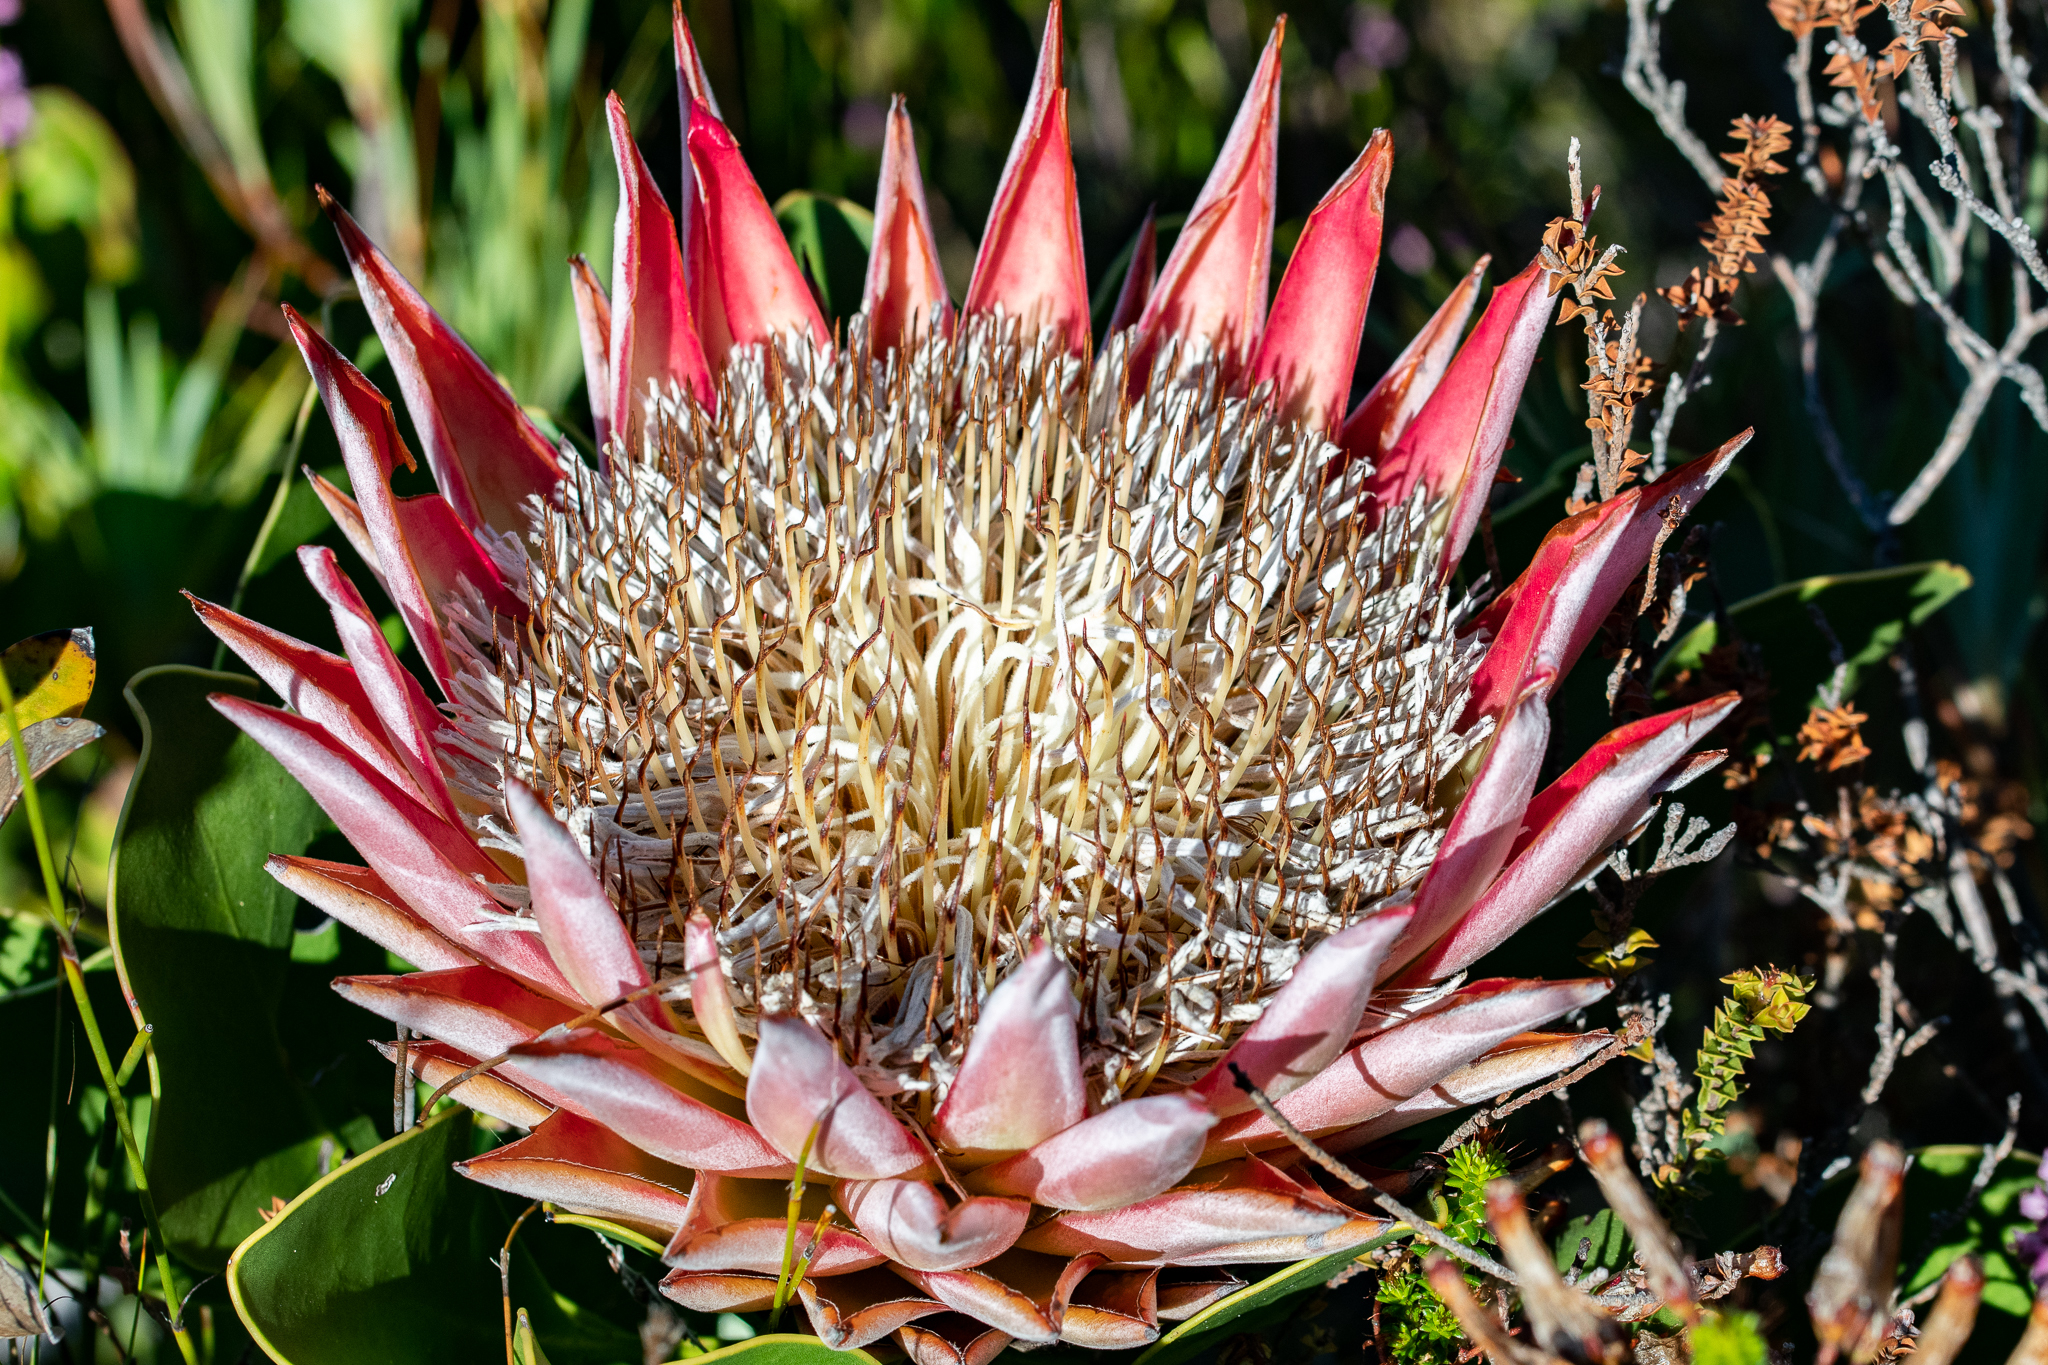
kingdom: Plantae
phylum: Tracheophyta
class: Magnoliopsida
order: Proteales
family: Proteaceae
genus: Protea
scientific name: Protea cynaroides
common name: King protea
